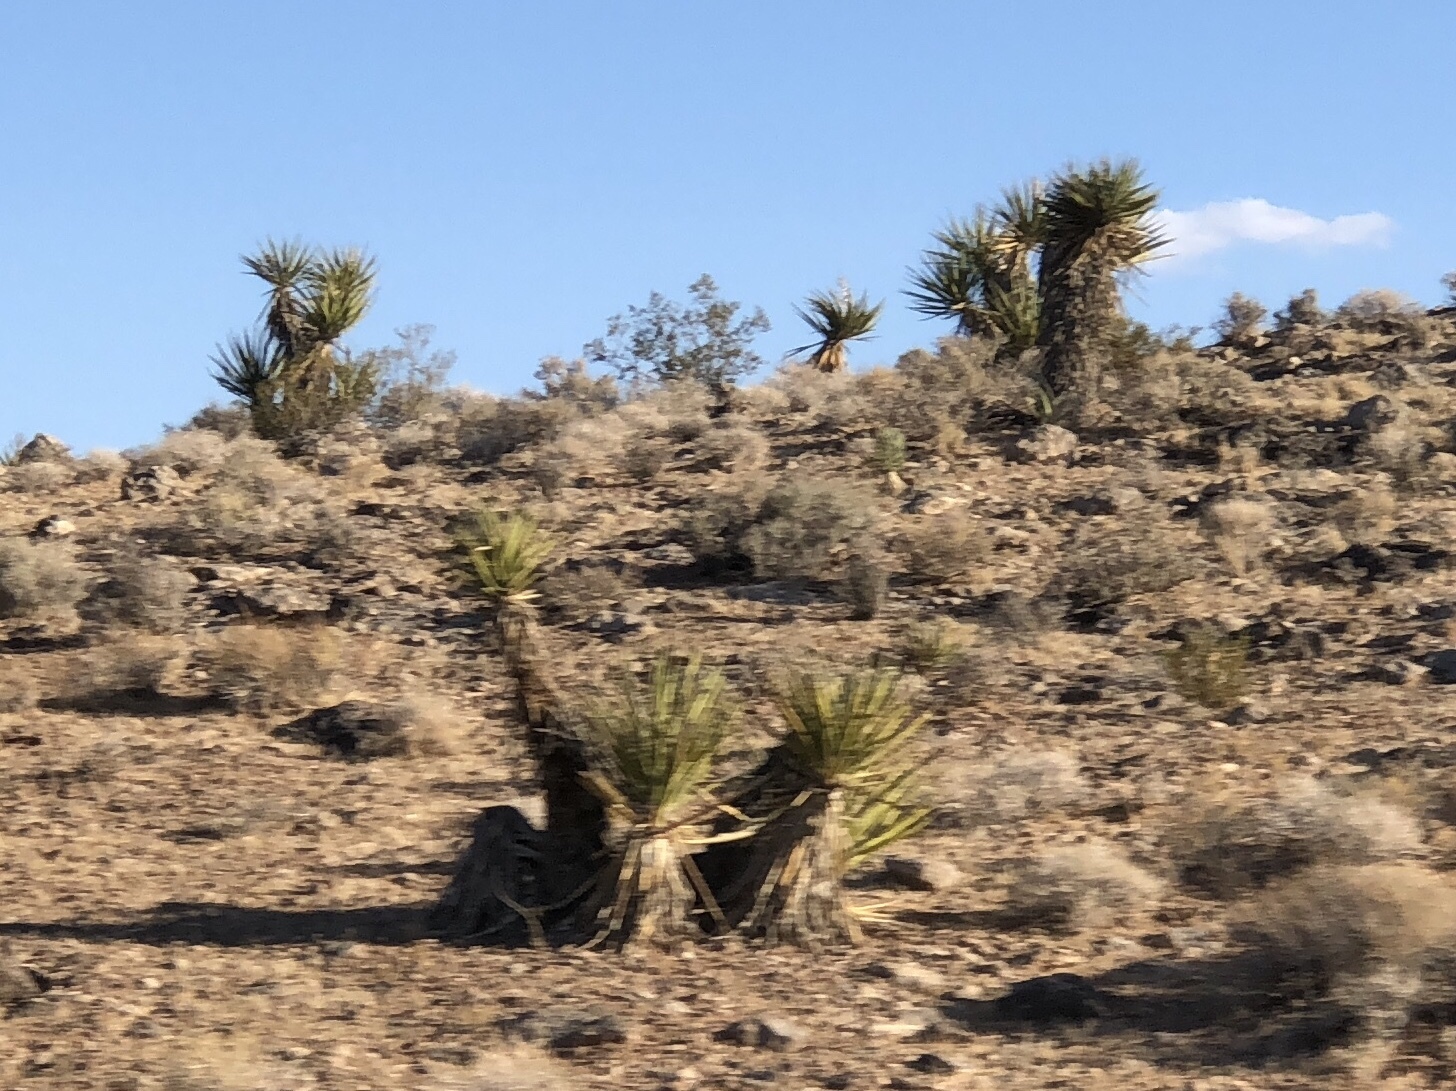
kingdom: Plantae
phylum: Tracheophyta
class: Liliopsida
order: Asparagales
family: Asparagaceae
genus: Yucca
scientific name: Yucca schidigera
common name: Mojave yucca
